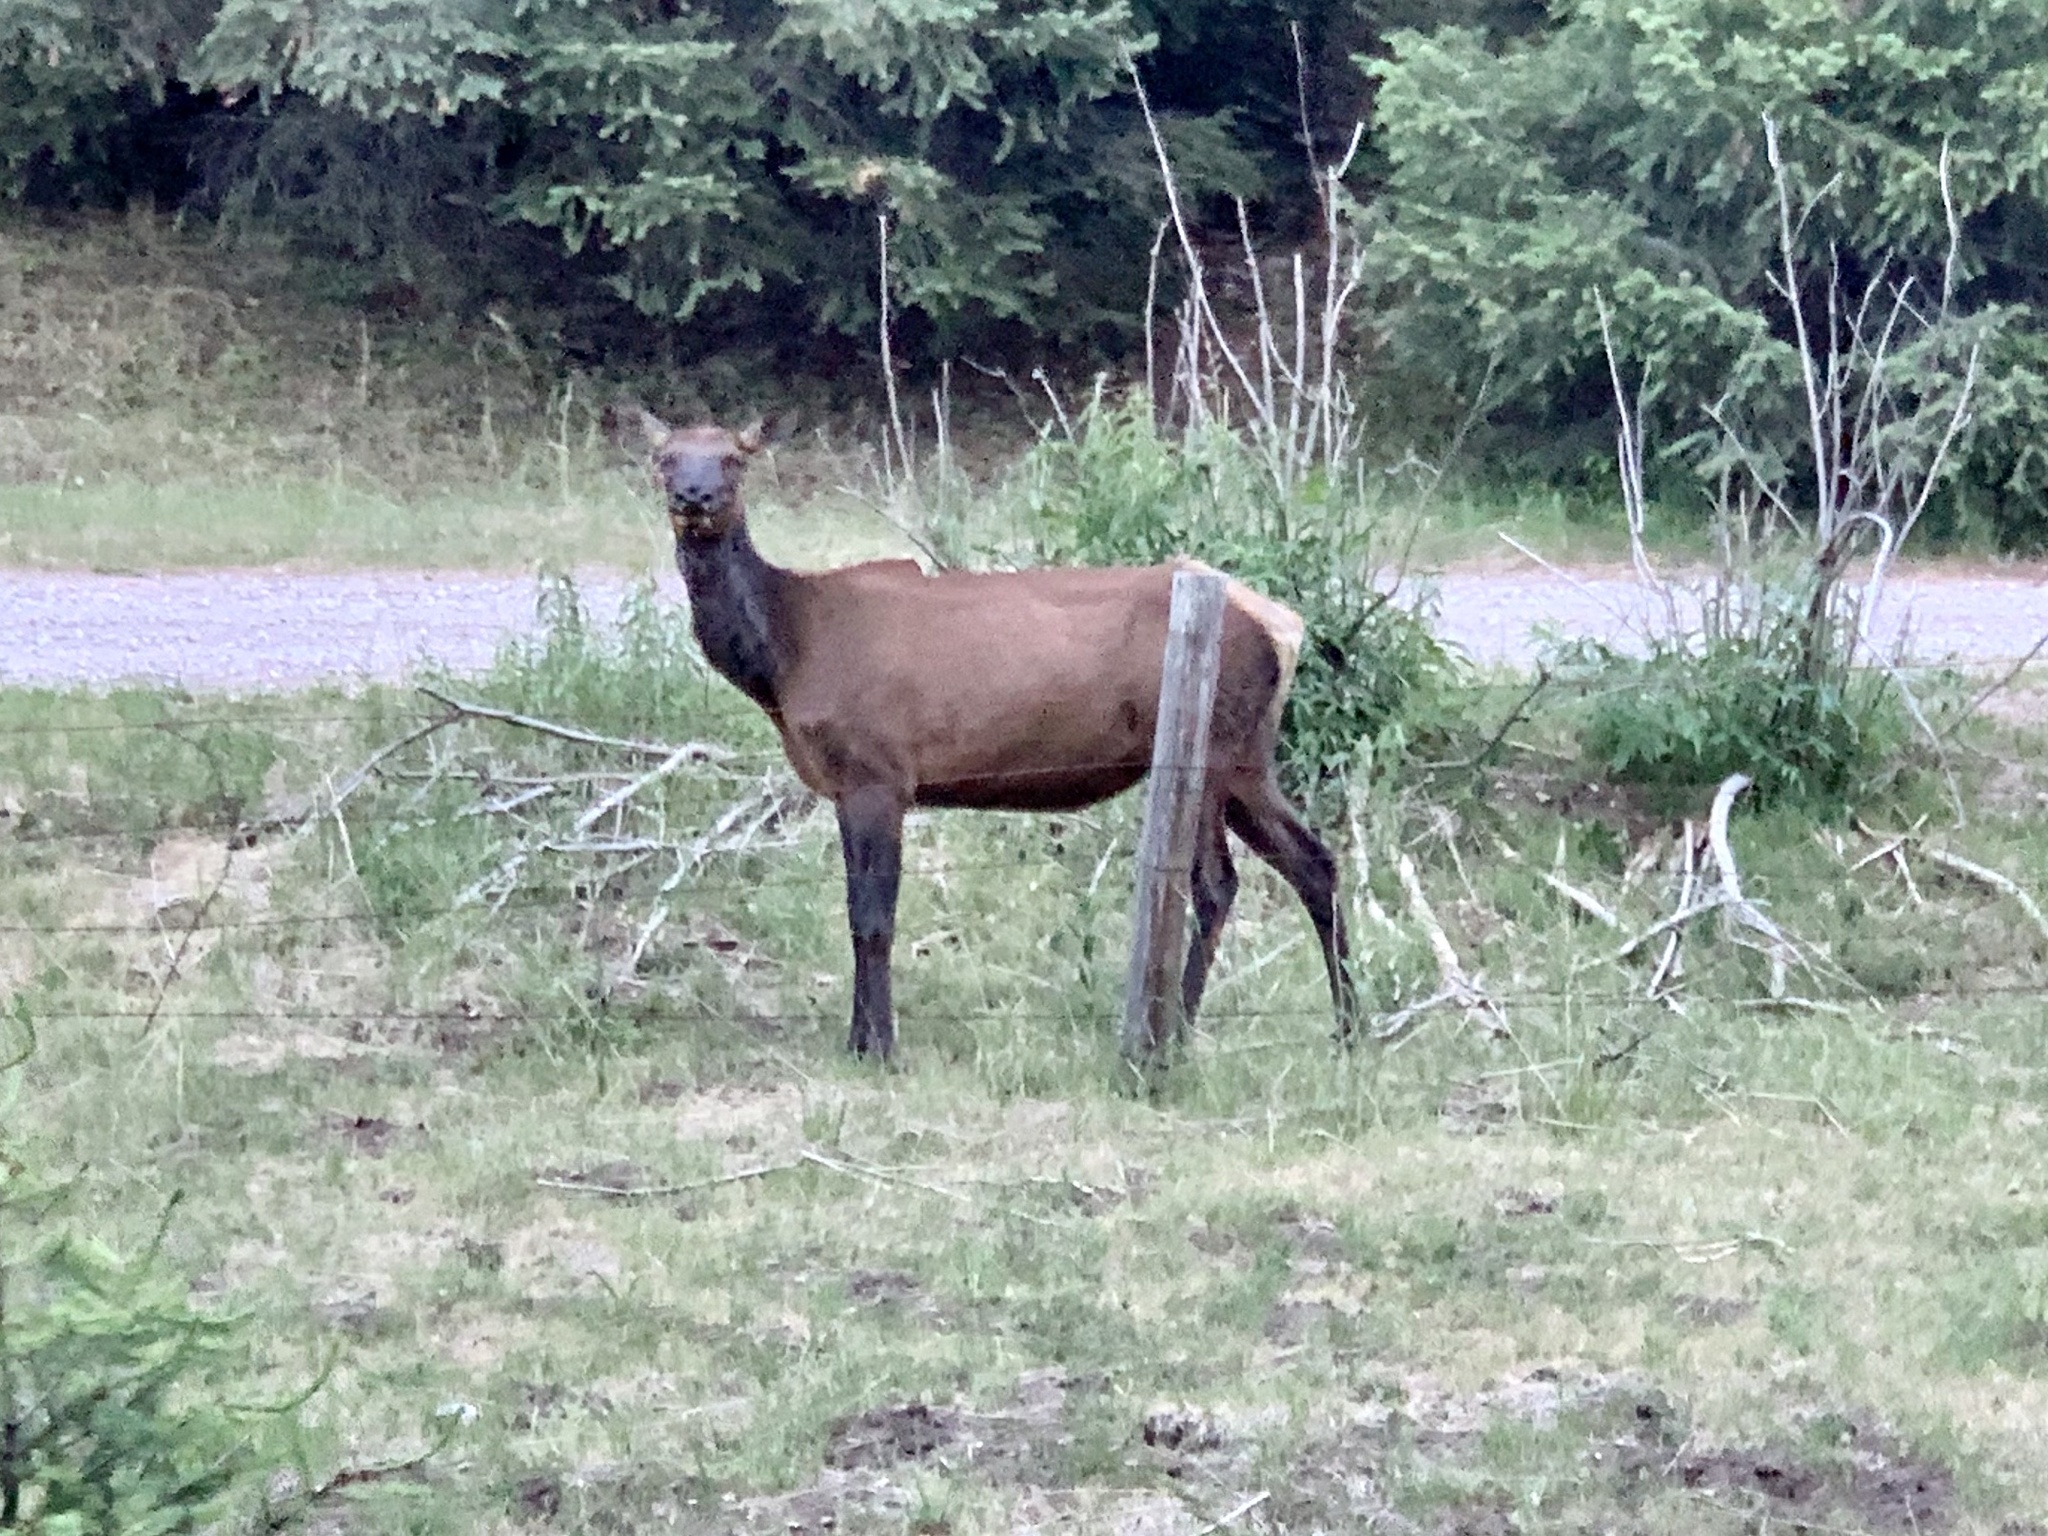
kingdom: Animalia
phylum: Chordata
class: Mammalia
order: Artiodactyla
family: Cervidae
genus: Cervus
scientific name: Cervus elaphus
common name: Red deer
